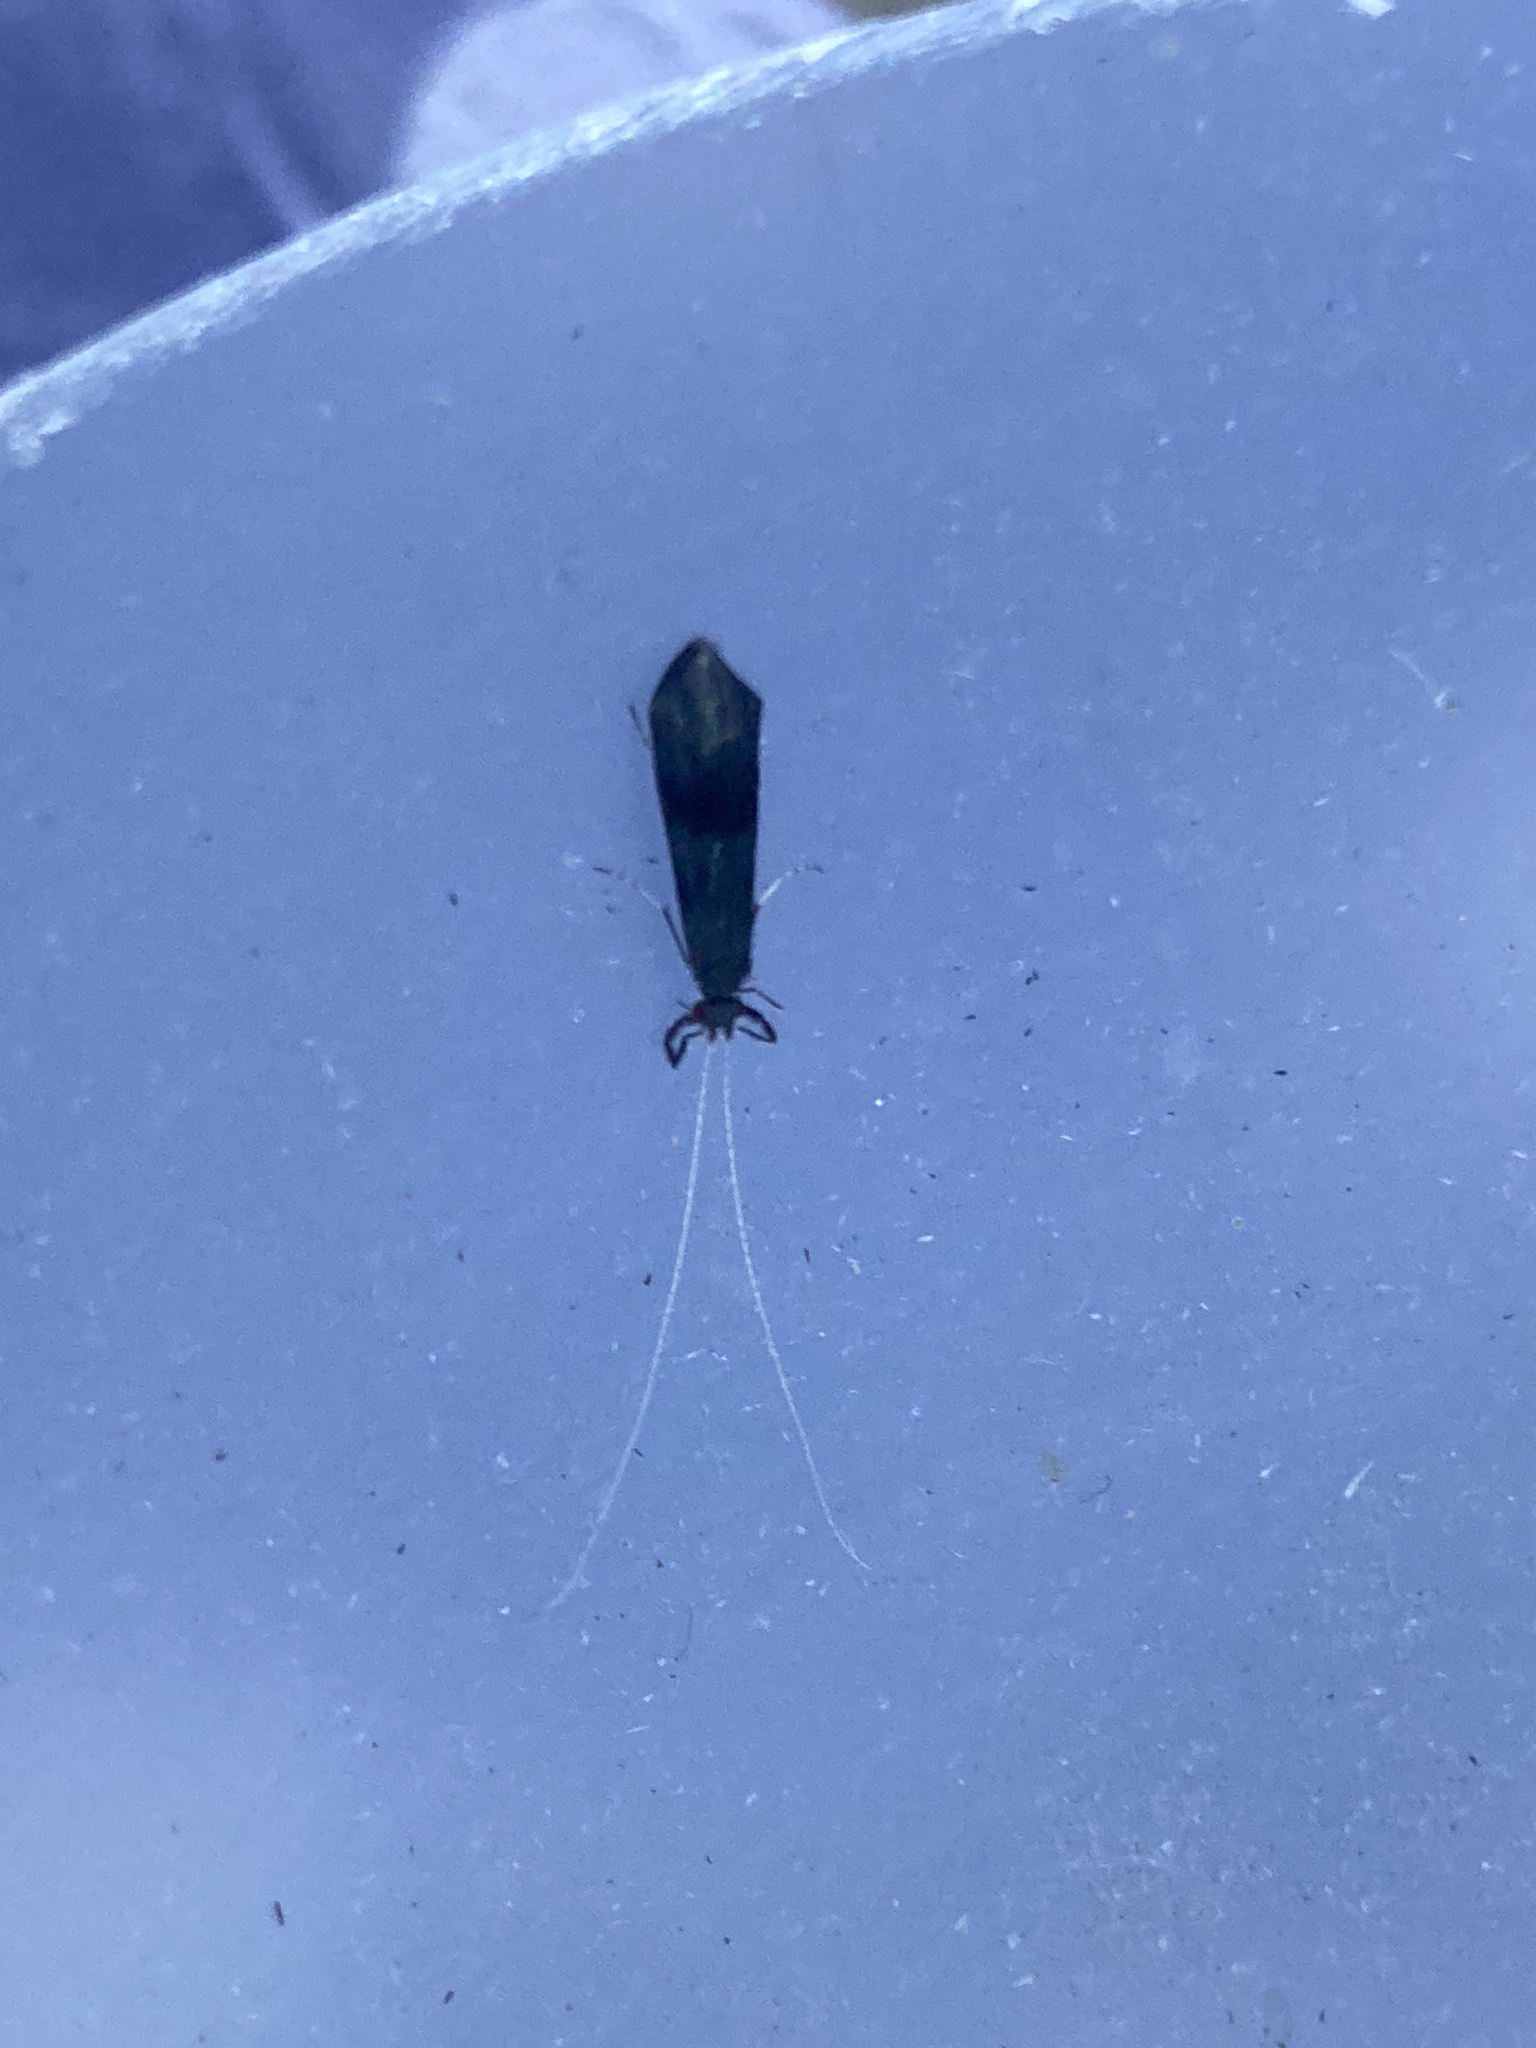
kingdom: Animalia
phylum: Arthropoda
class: Insecta
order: Trichoptera
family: Leptoceridae
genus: Mystacides
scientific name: Mystacides azureus
